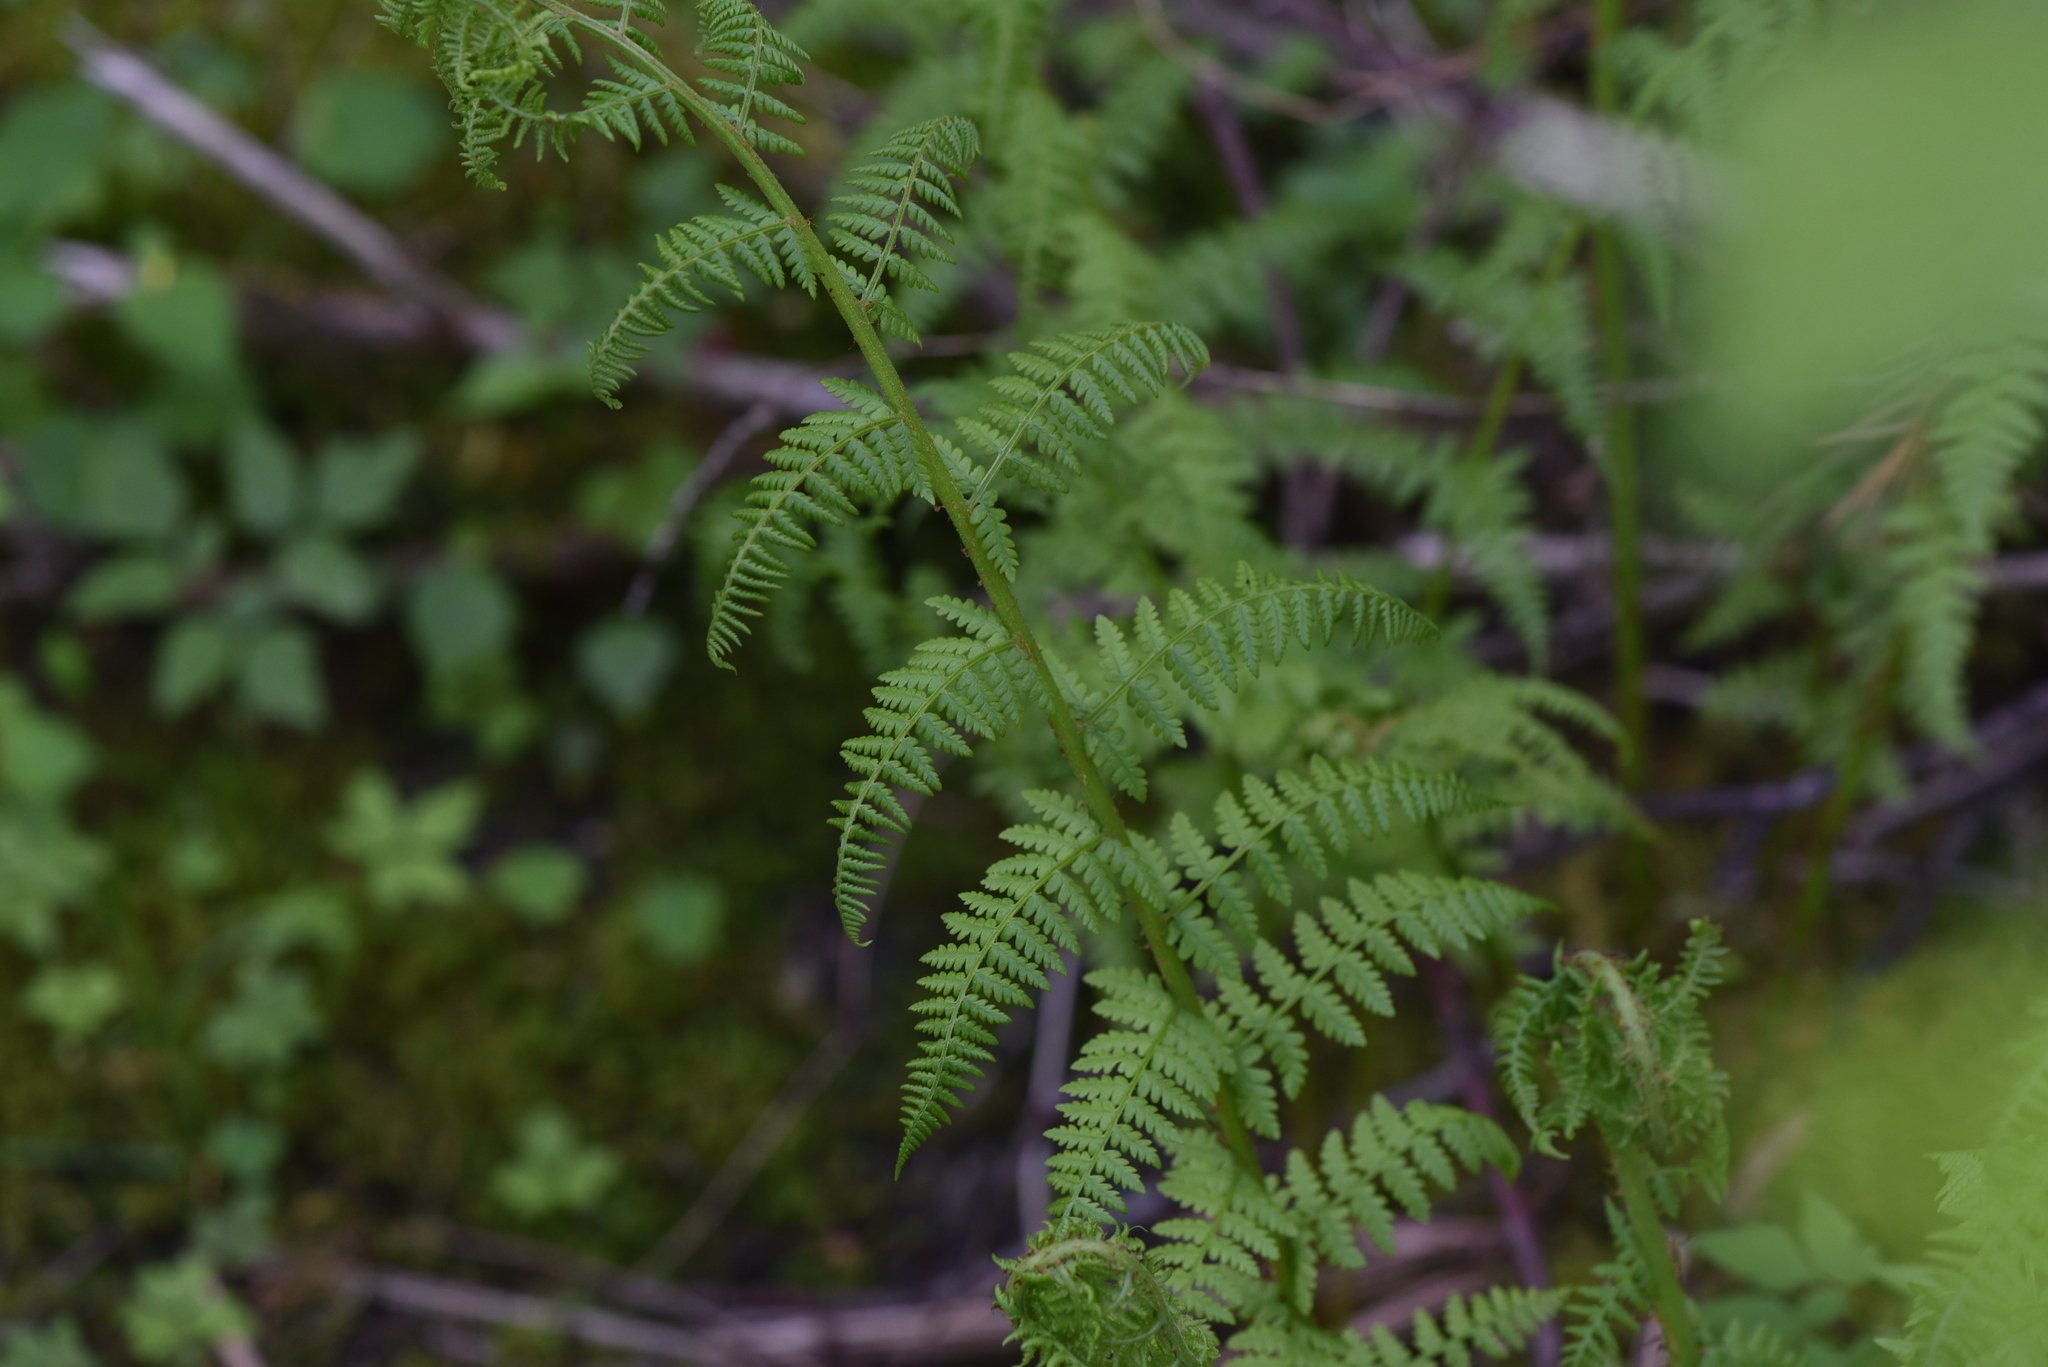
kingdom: Plantae
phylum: Tracheophyta
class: Polypodiopsida
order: Polypodiales
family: Athyriaceae
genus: Athyrium
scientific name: Athyrium filix-femina
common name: Lady fern
